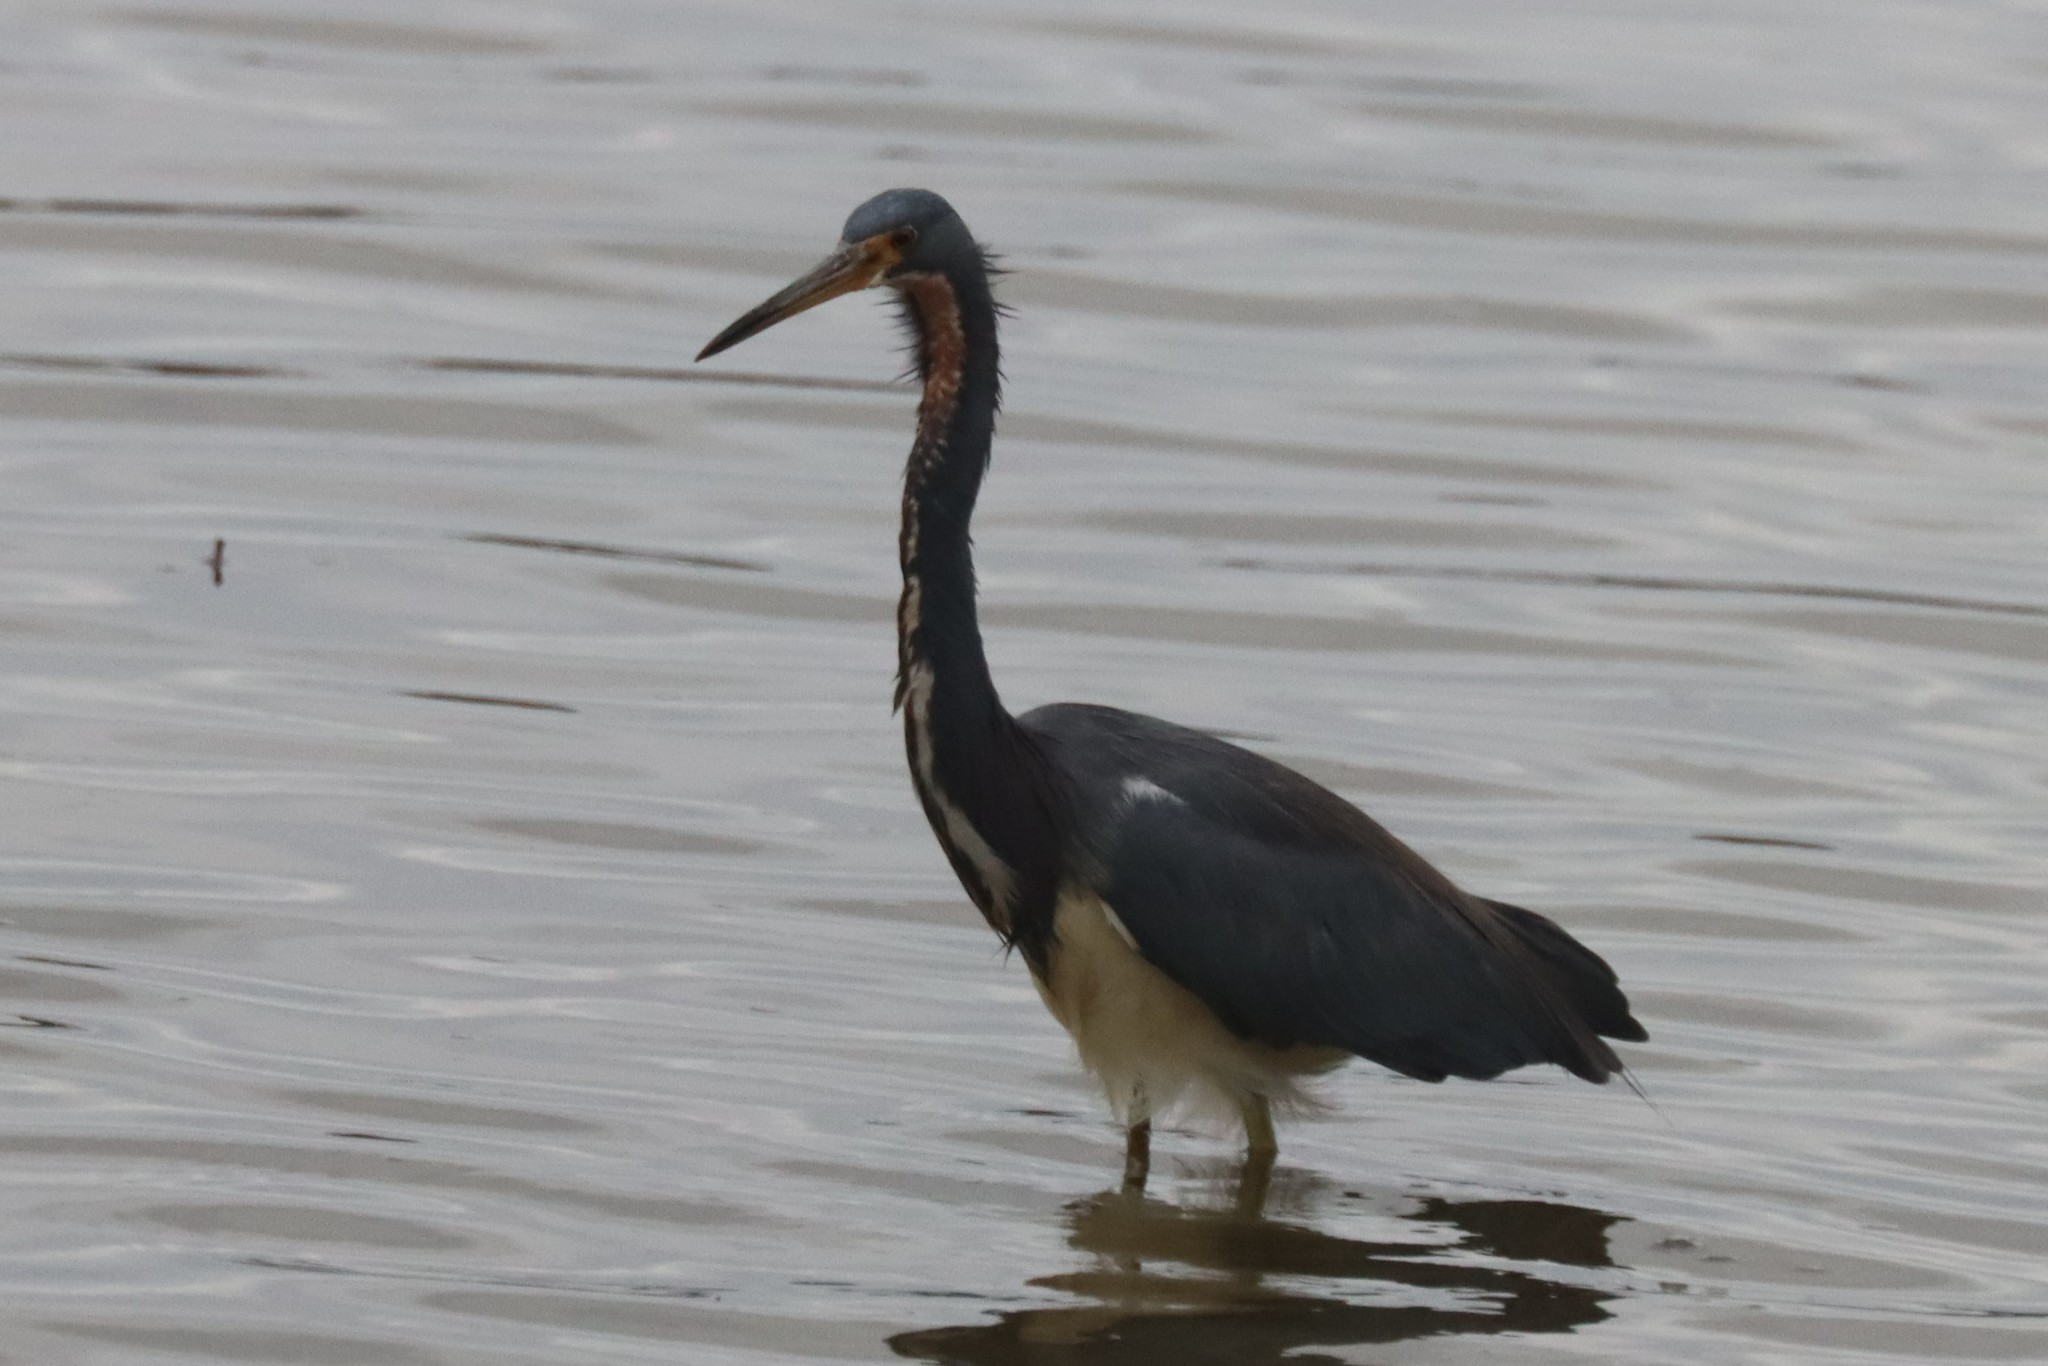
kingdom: Animalia
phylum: Chordata
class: Aves
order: Pelecaniformes
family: Ardeidae
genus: Egretta
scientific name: Egretta tricolor
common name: Tricolored heron
